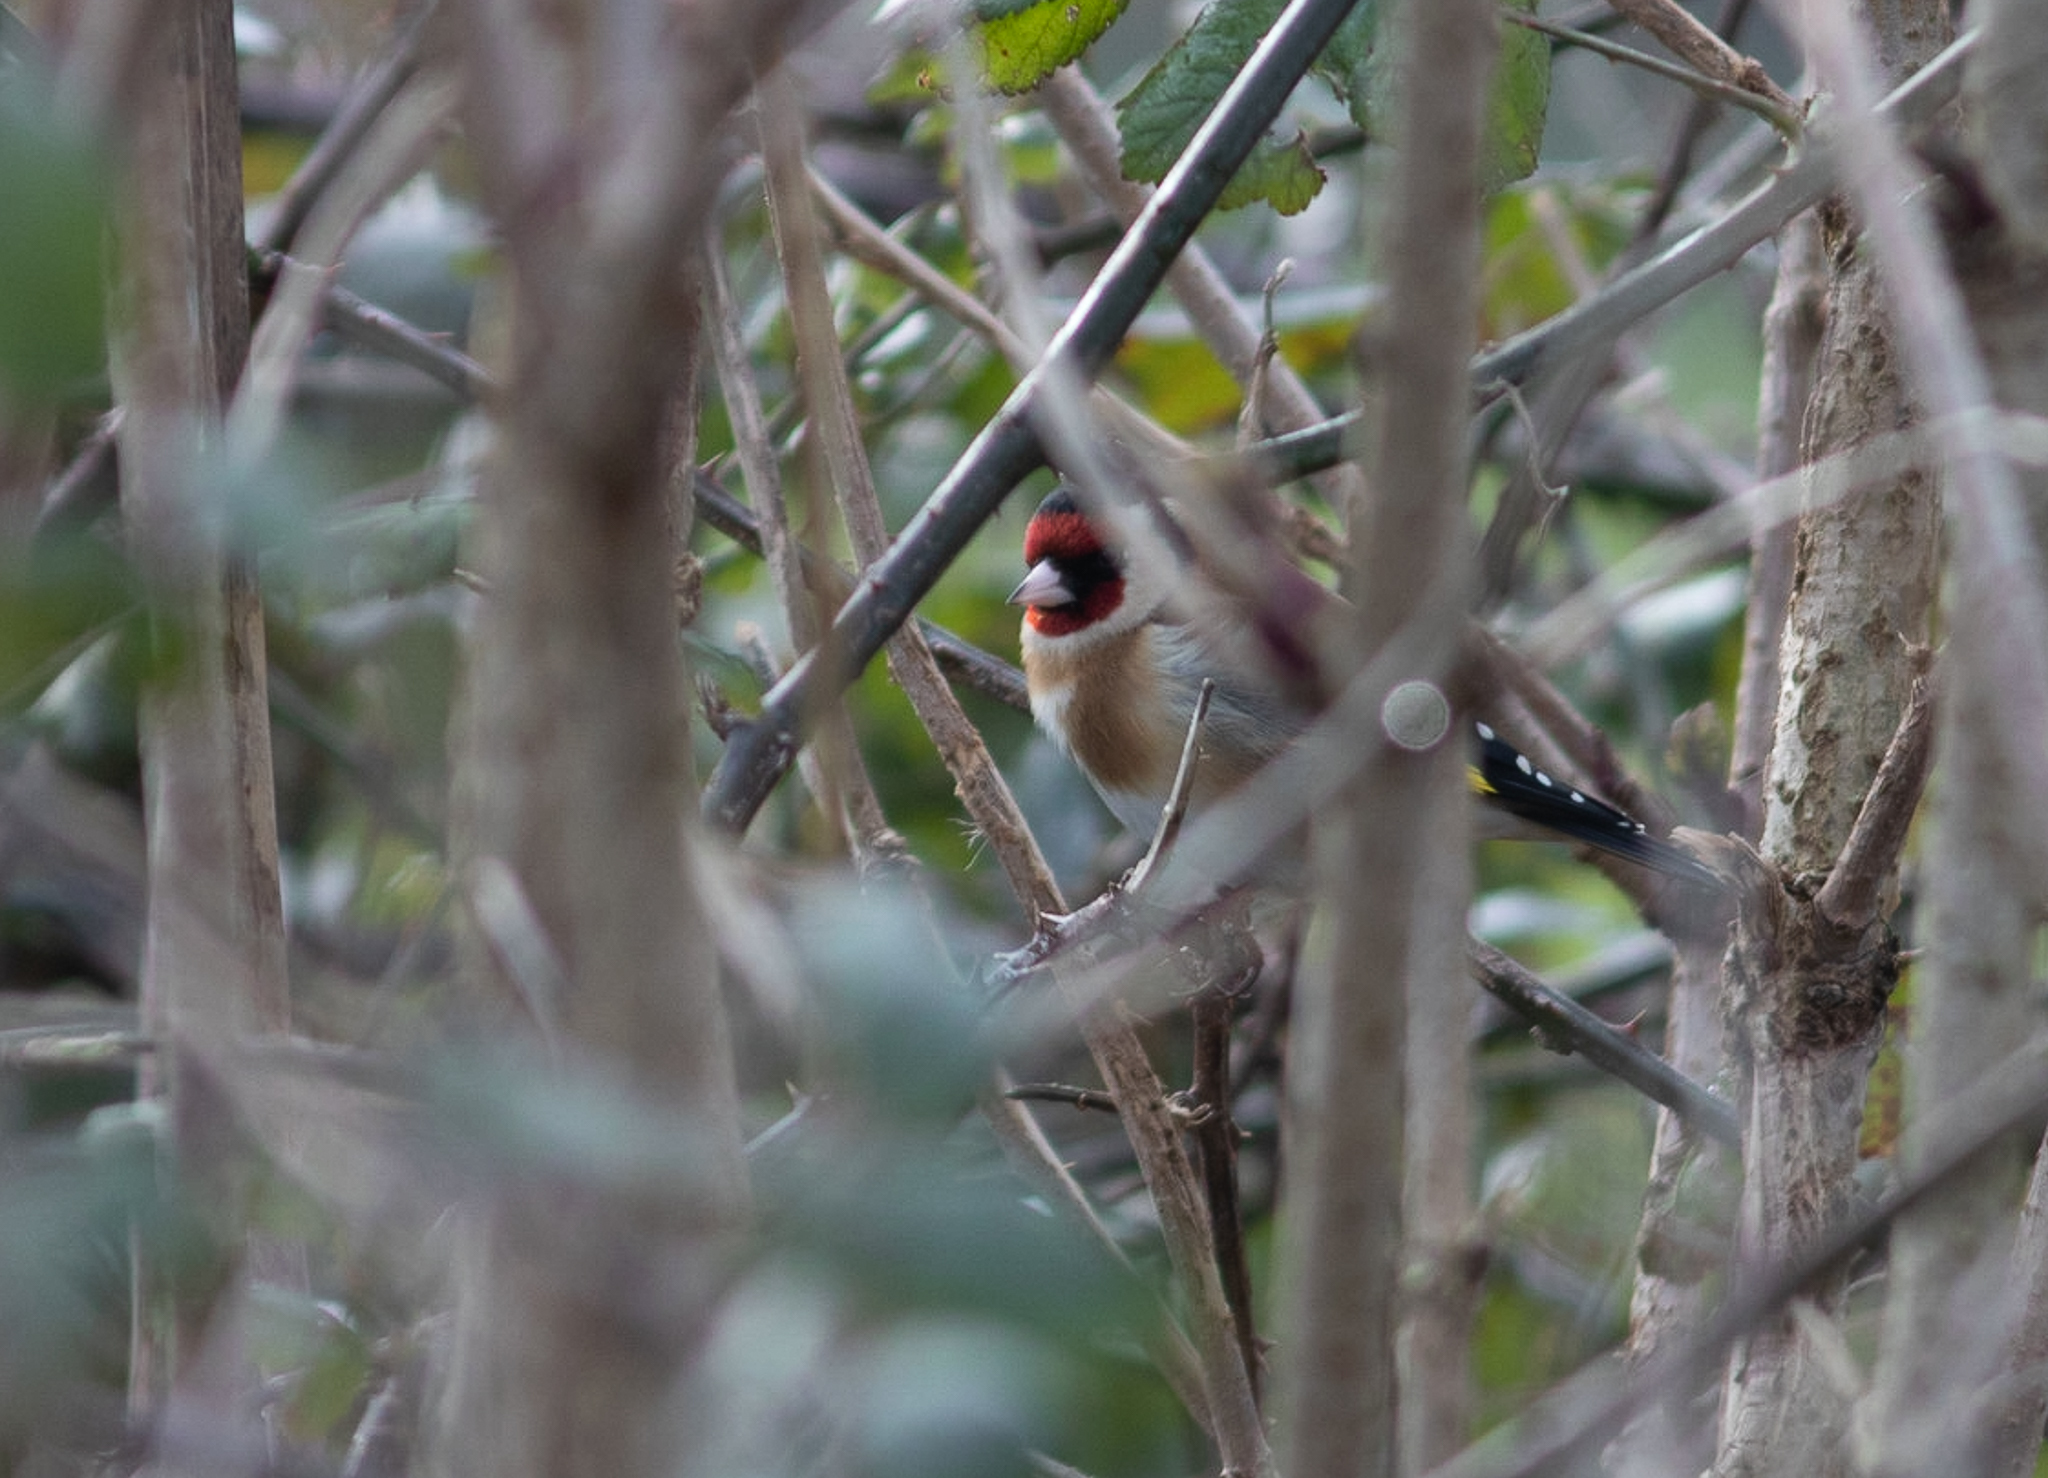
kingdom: Animalia
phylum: Chordata
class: Aves
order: Passeriformes
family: Fringillidae
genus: Carduelis
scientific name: Carduelis carduelis
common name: European goldfinch
